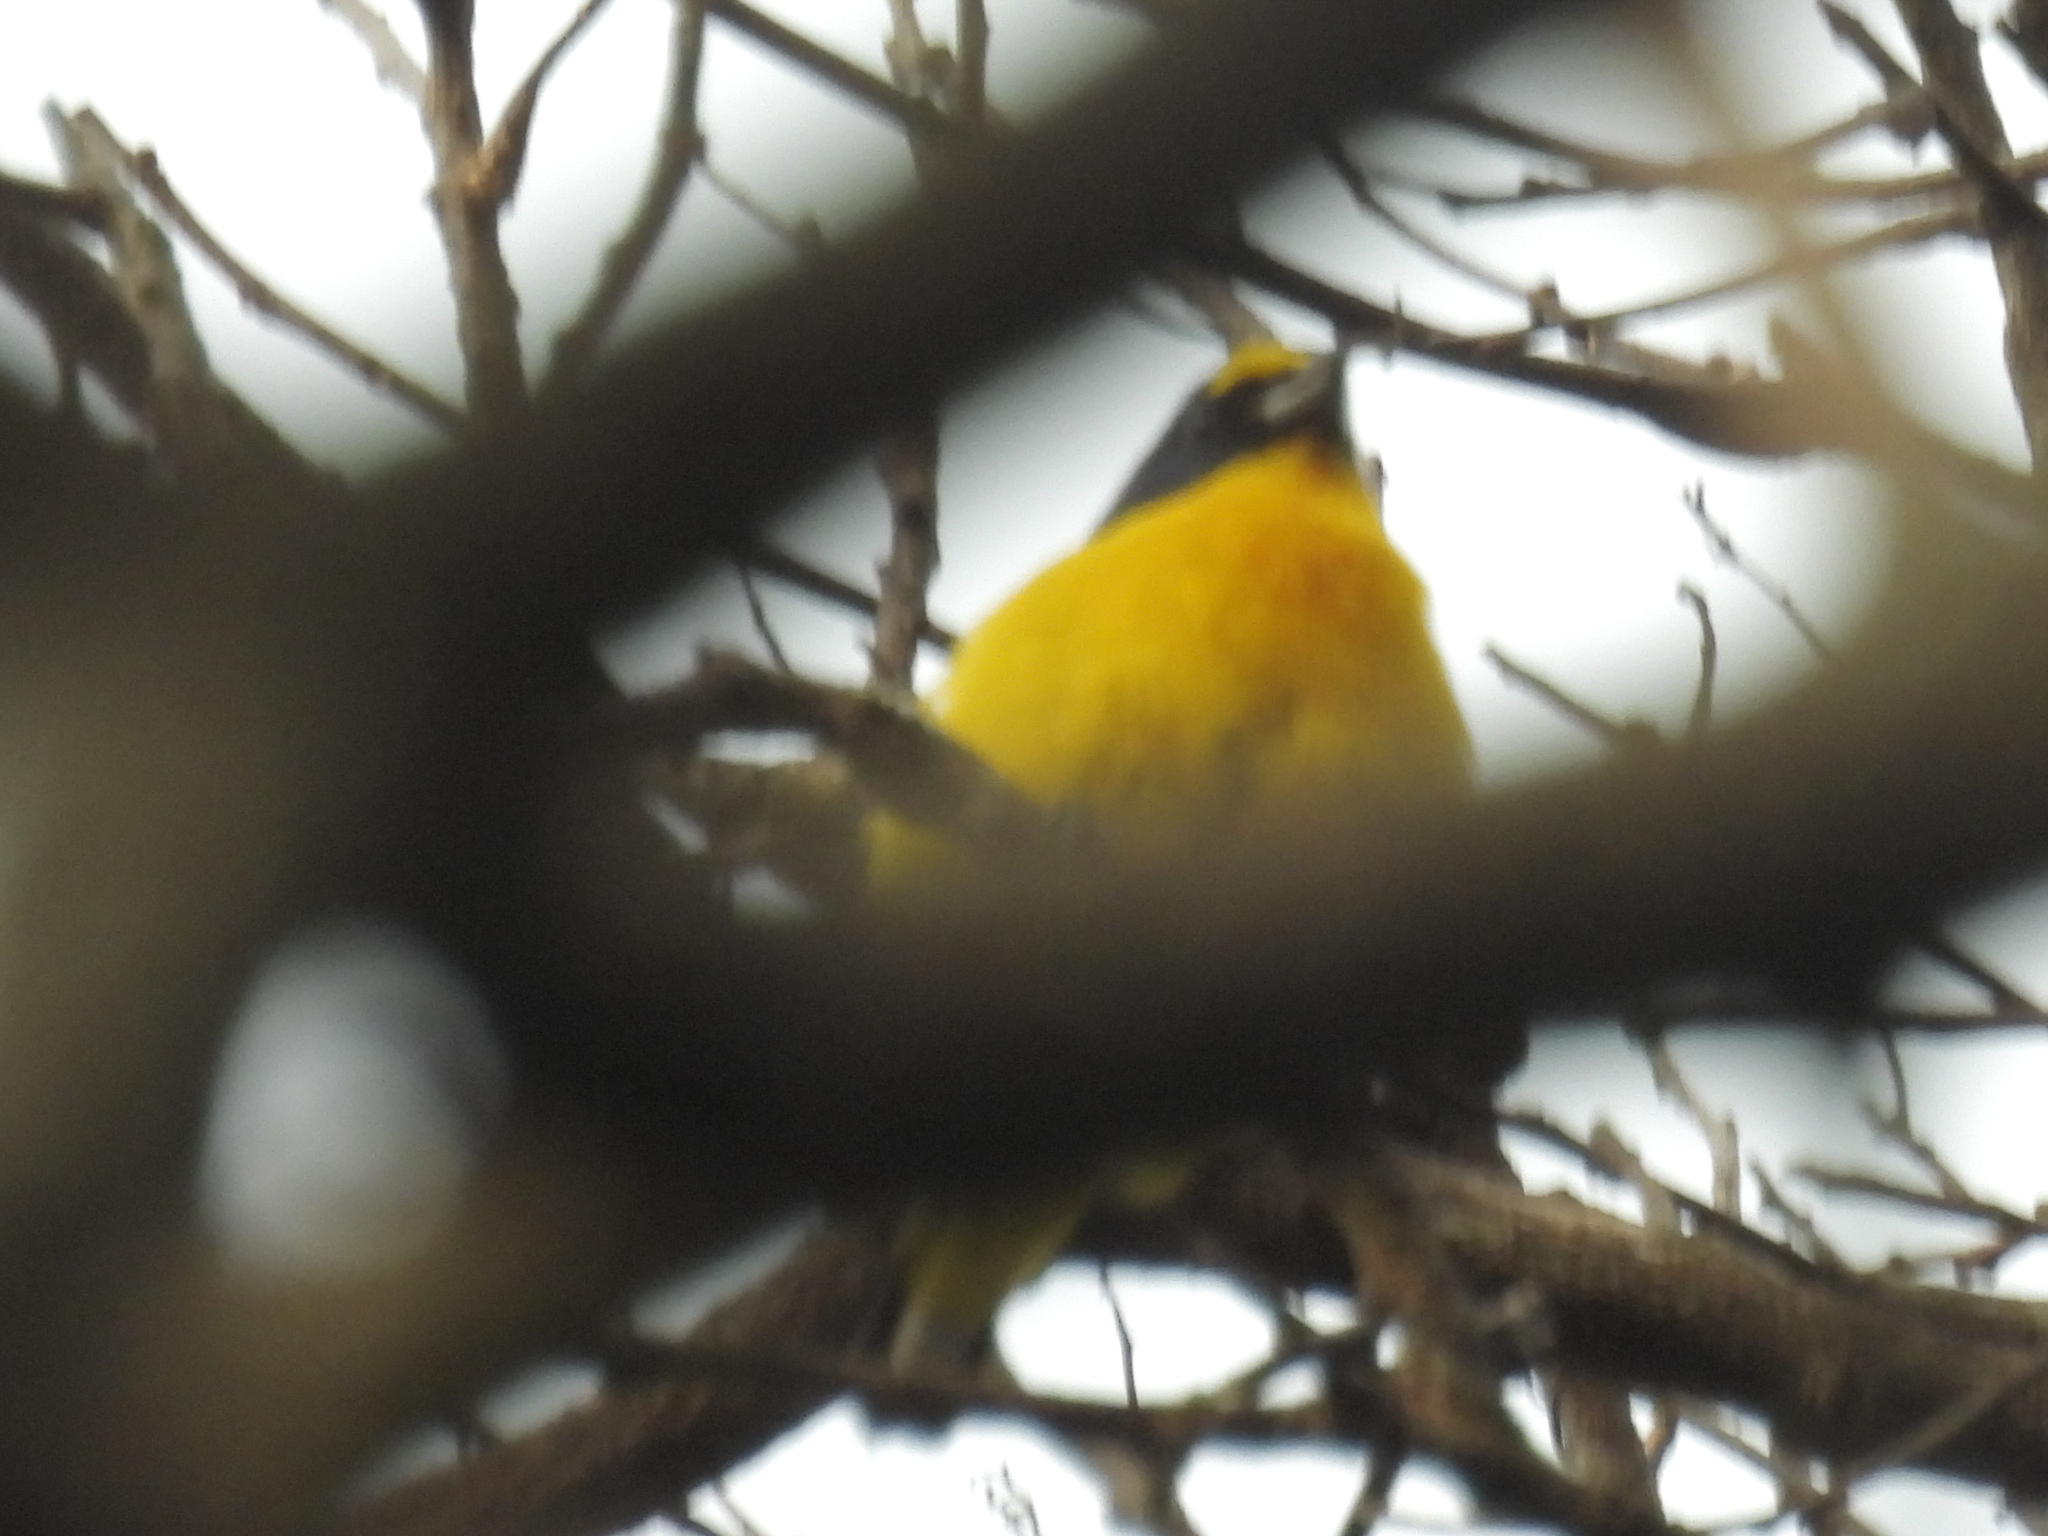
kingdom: Animalia
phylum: Chordata
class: Aves
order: Passeriformes
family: Fringillidae
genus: Euphonia
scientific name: Euphonia hirundinacea
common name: Yellow-throated euphonia
